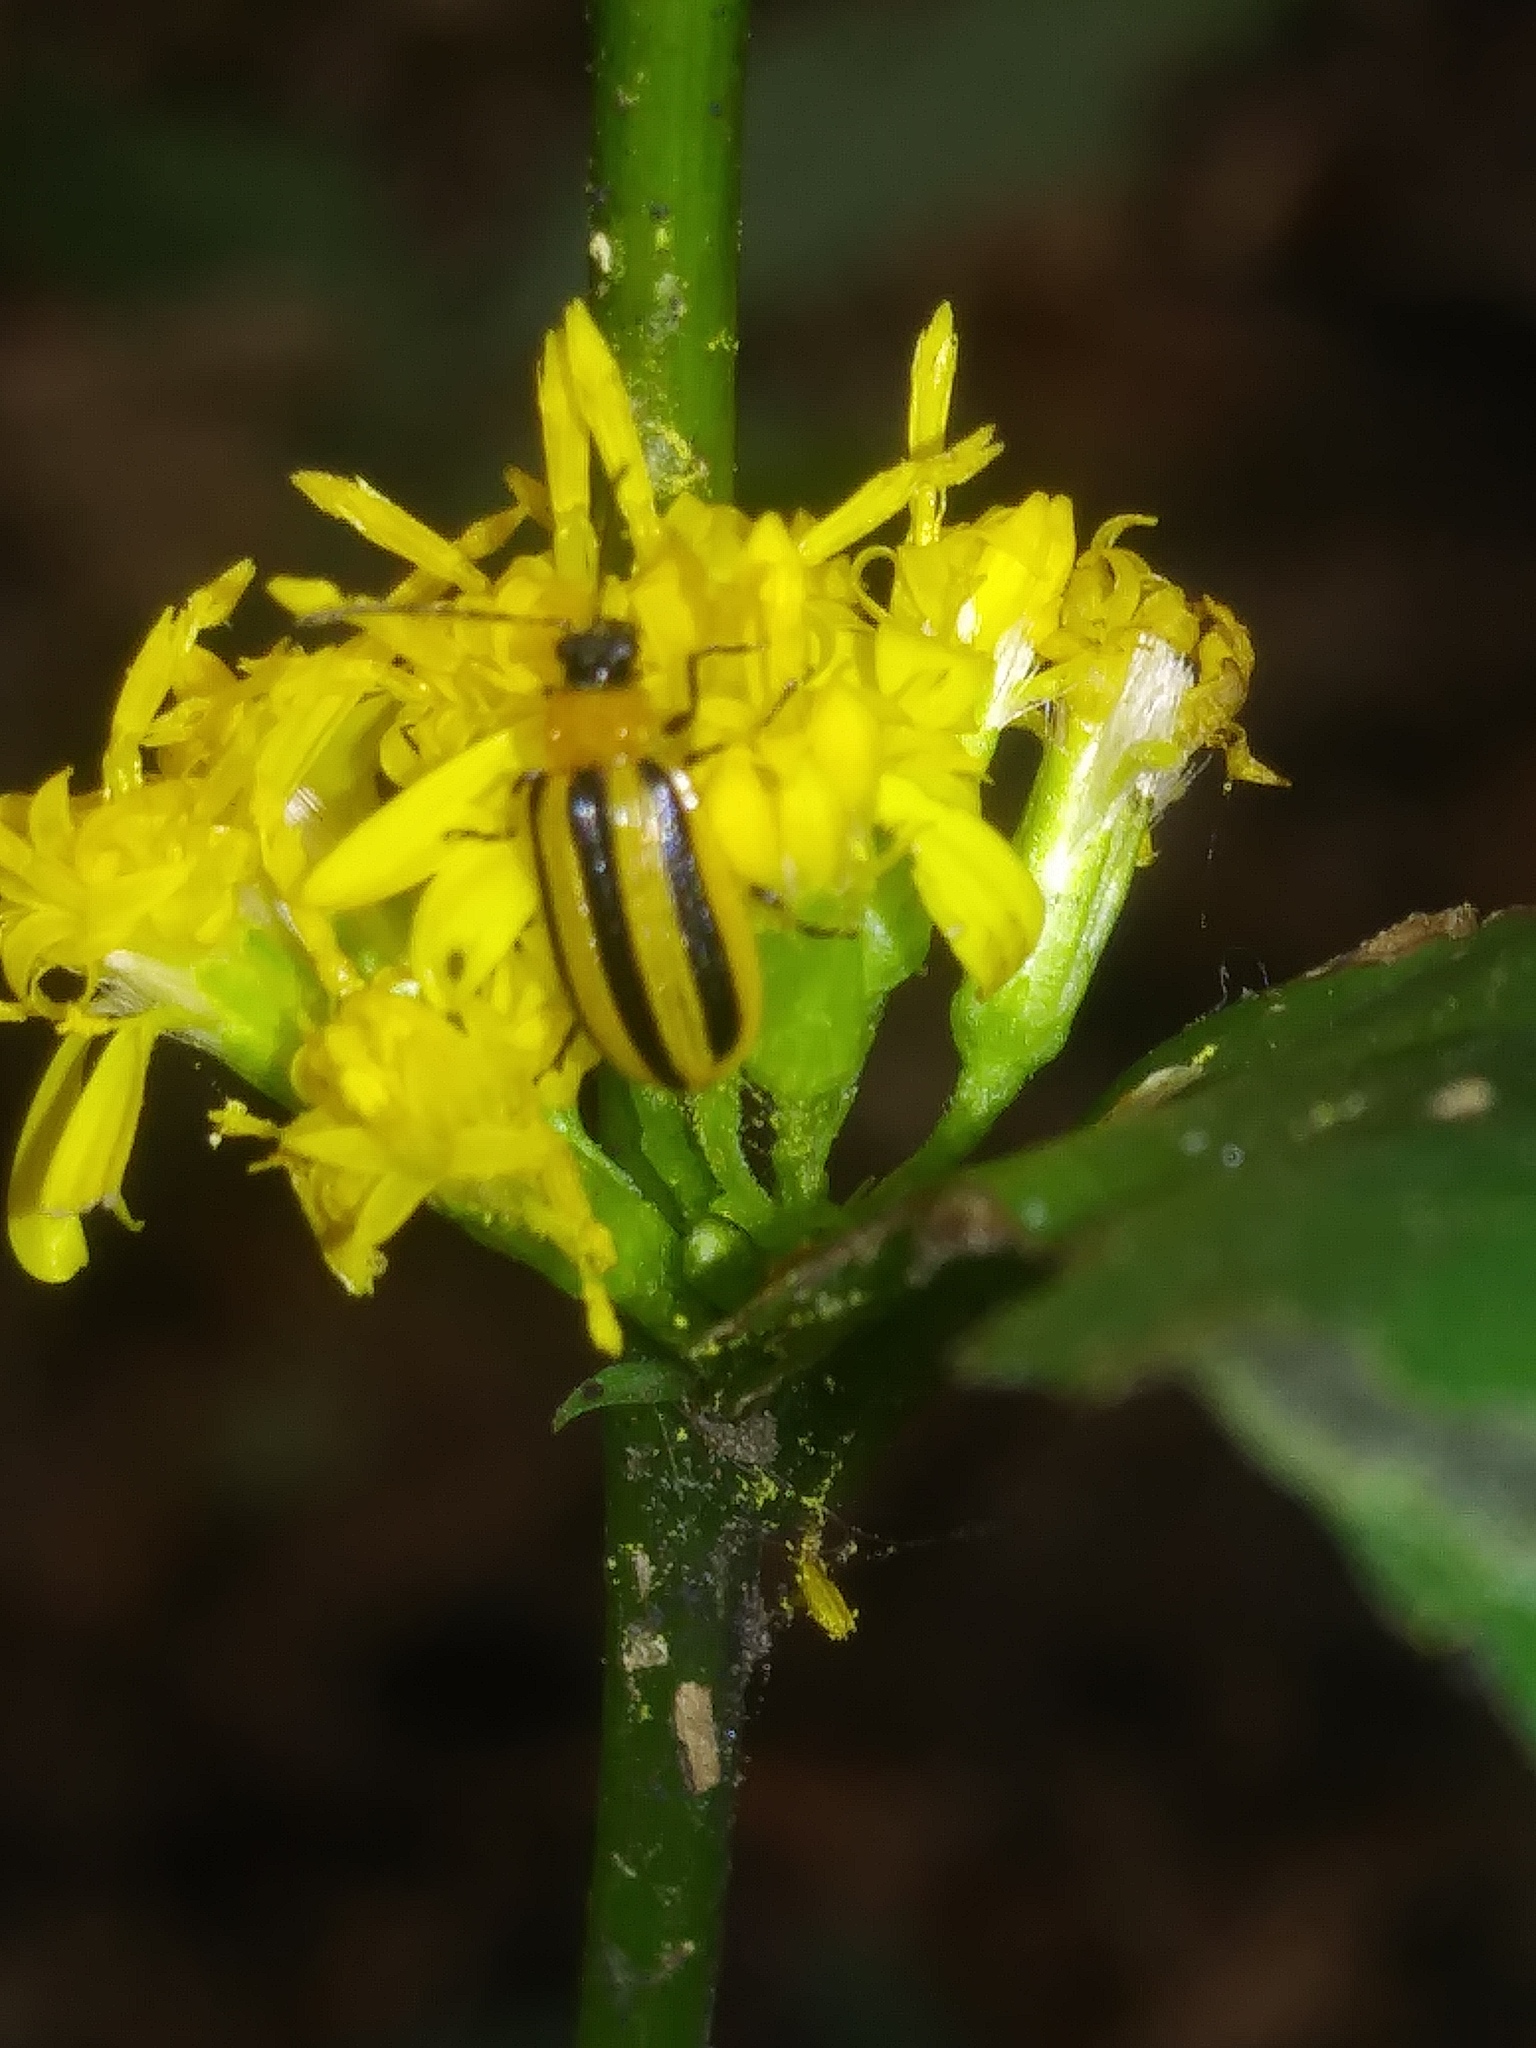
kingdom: Animalia
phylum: Arthropoda
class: Insecta
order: Coleoptera
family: Chrysomelidae
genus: Acalymma
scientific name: Acalymma vittatum
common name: Striped cucumber beetle
